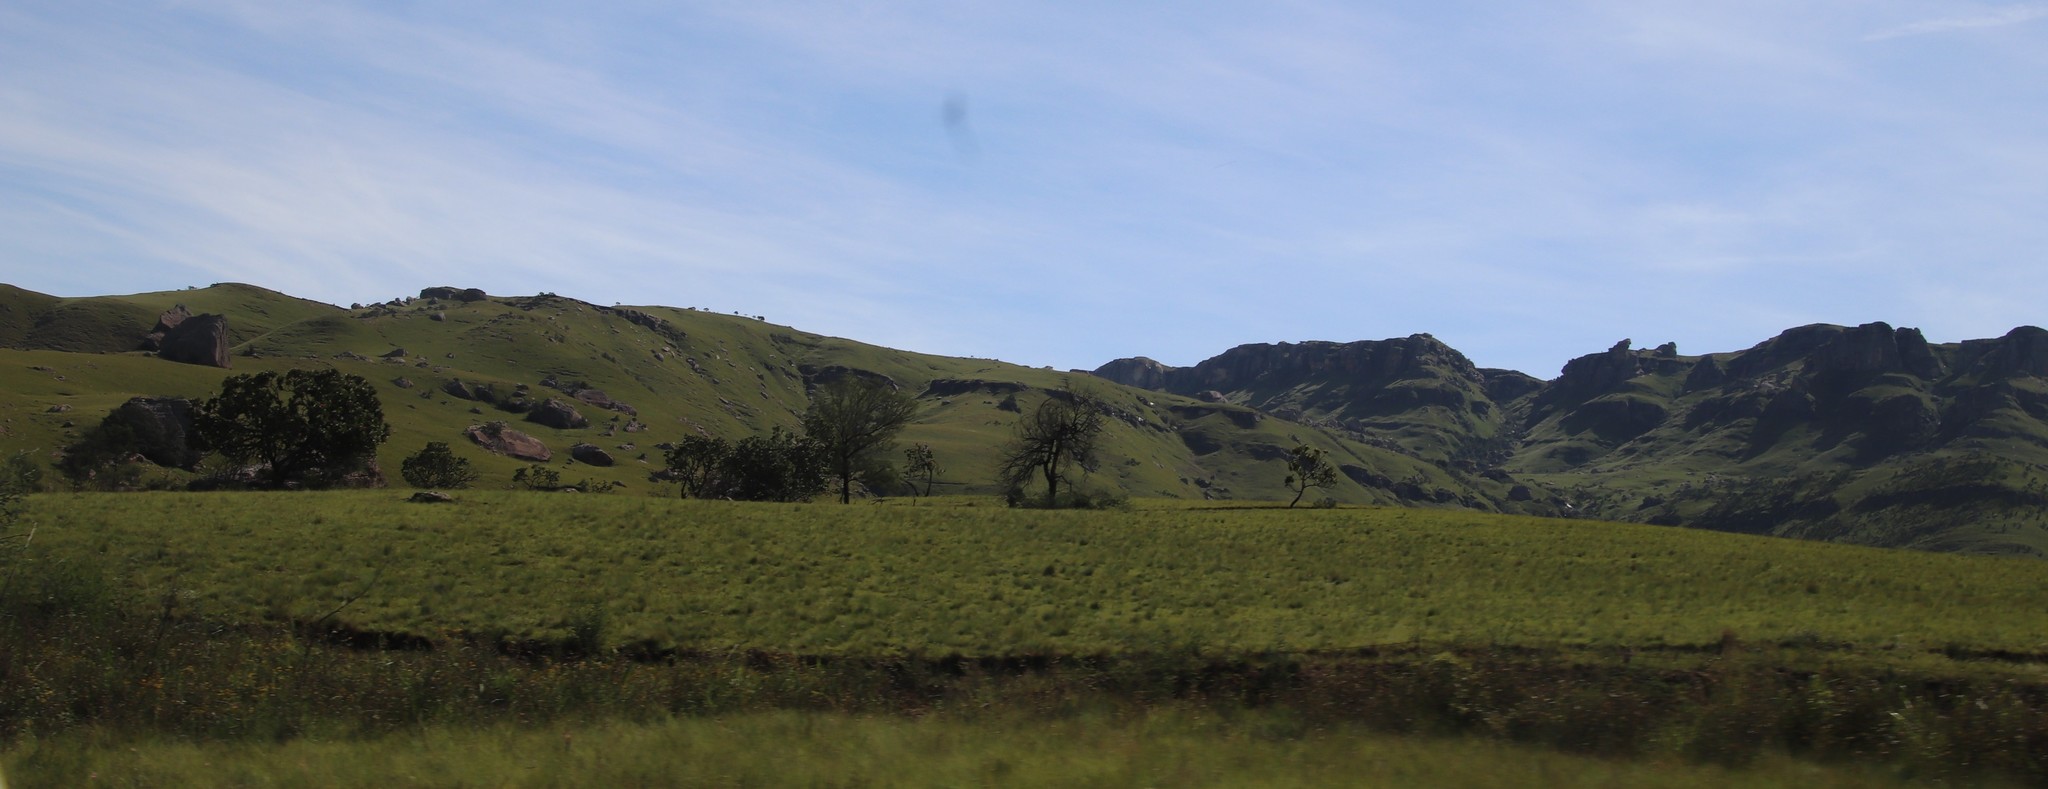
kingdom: Plantae
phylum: Tracheophyta
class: Magnoliopsida
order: Proteales
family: Proteaceae
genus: Protea
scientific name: Protea roupelliae
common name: Silver sugarbush
